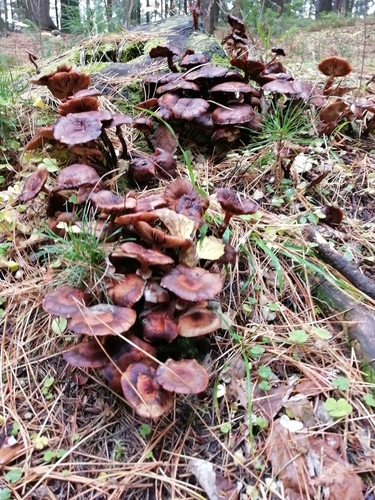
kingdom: Fungi
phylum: Basidiomycota
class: Agaricomycetes
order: Agaricales
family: Physalacriaceae
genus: Armillaria
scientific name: Armillaria mellea
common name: Honey fungus
